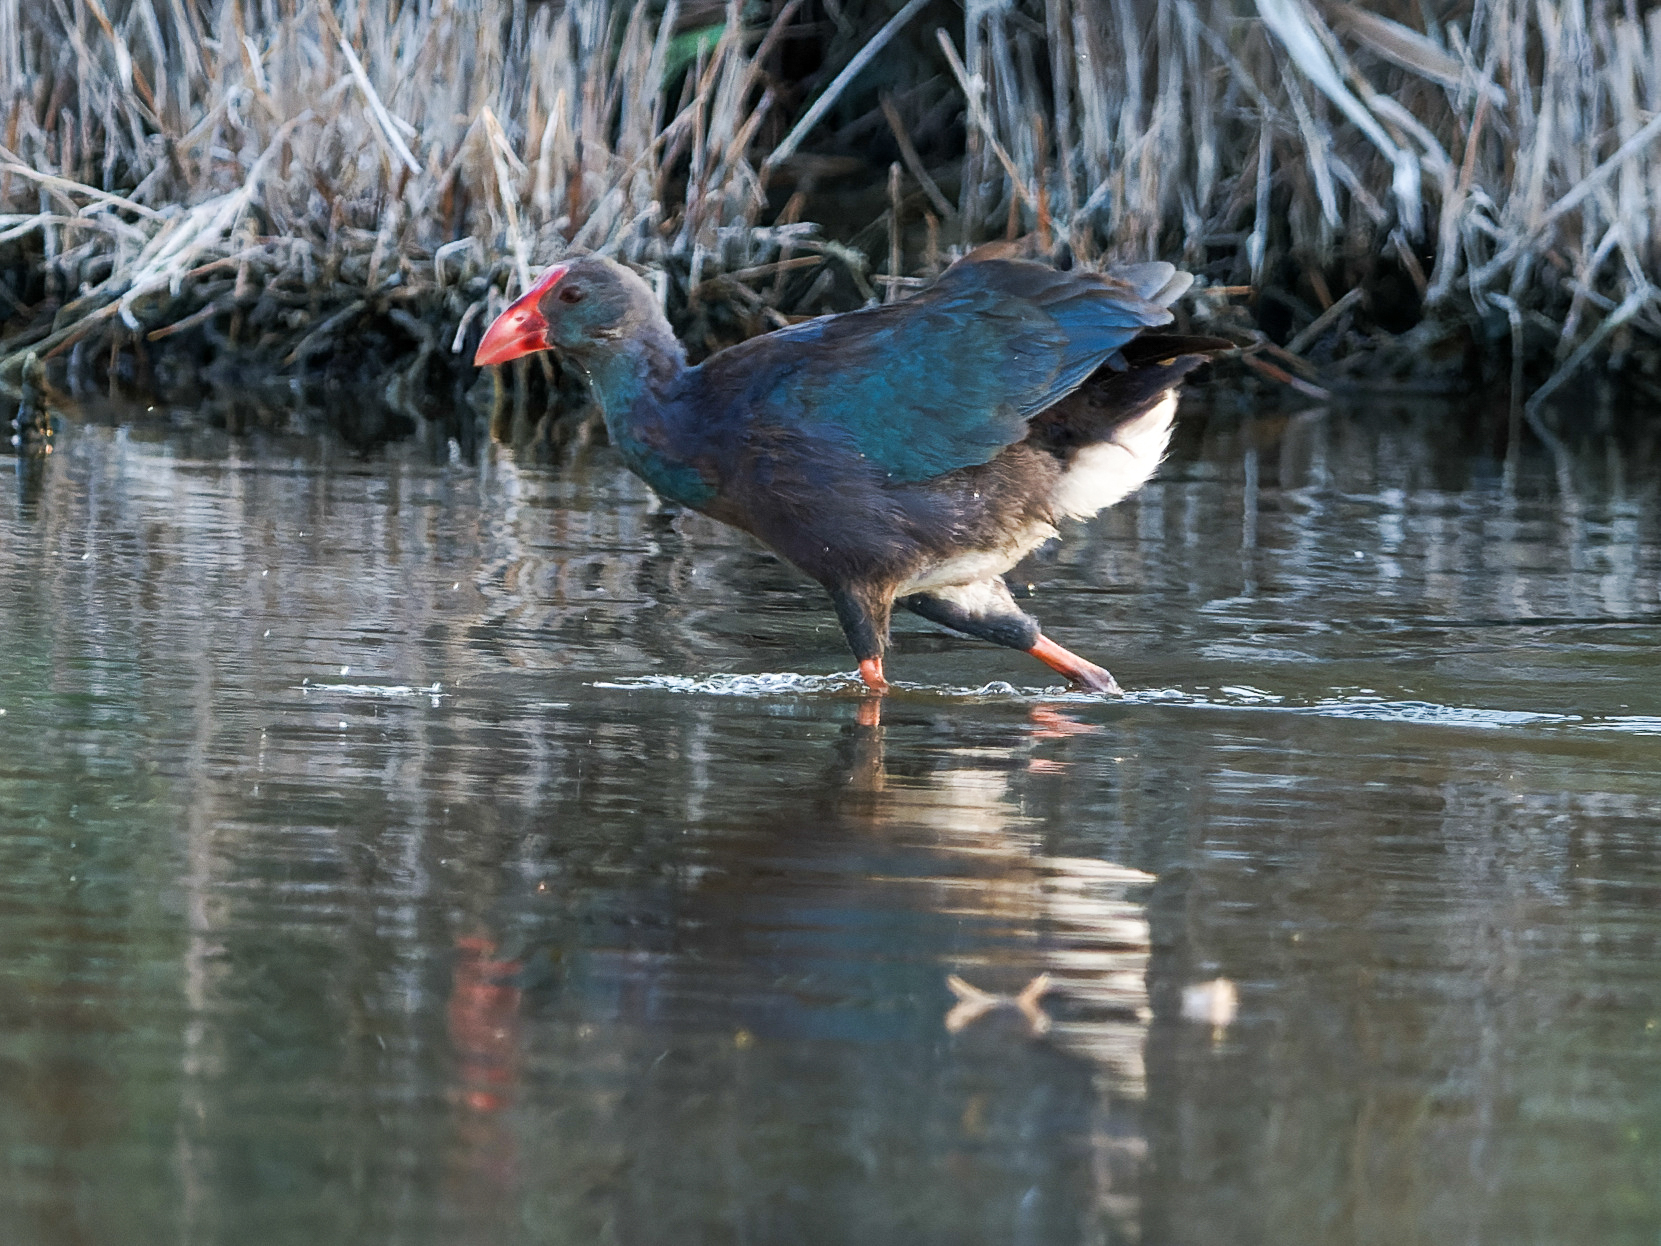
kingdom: Animalia
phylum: Chordata
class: Aves
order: Gruiformes
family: Rallidae
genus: Porphyrio
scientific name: Porphyrio porphyrio
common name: Purple swamphen
